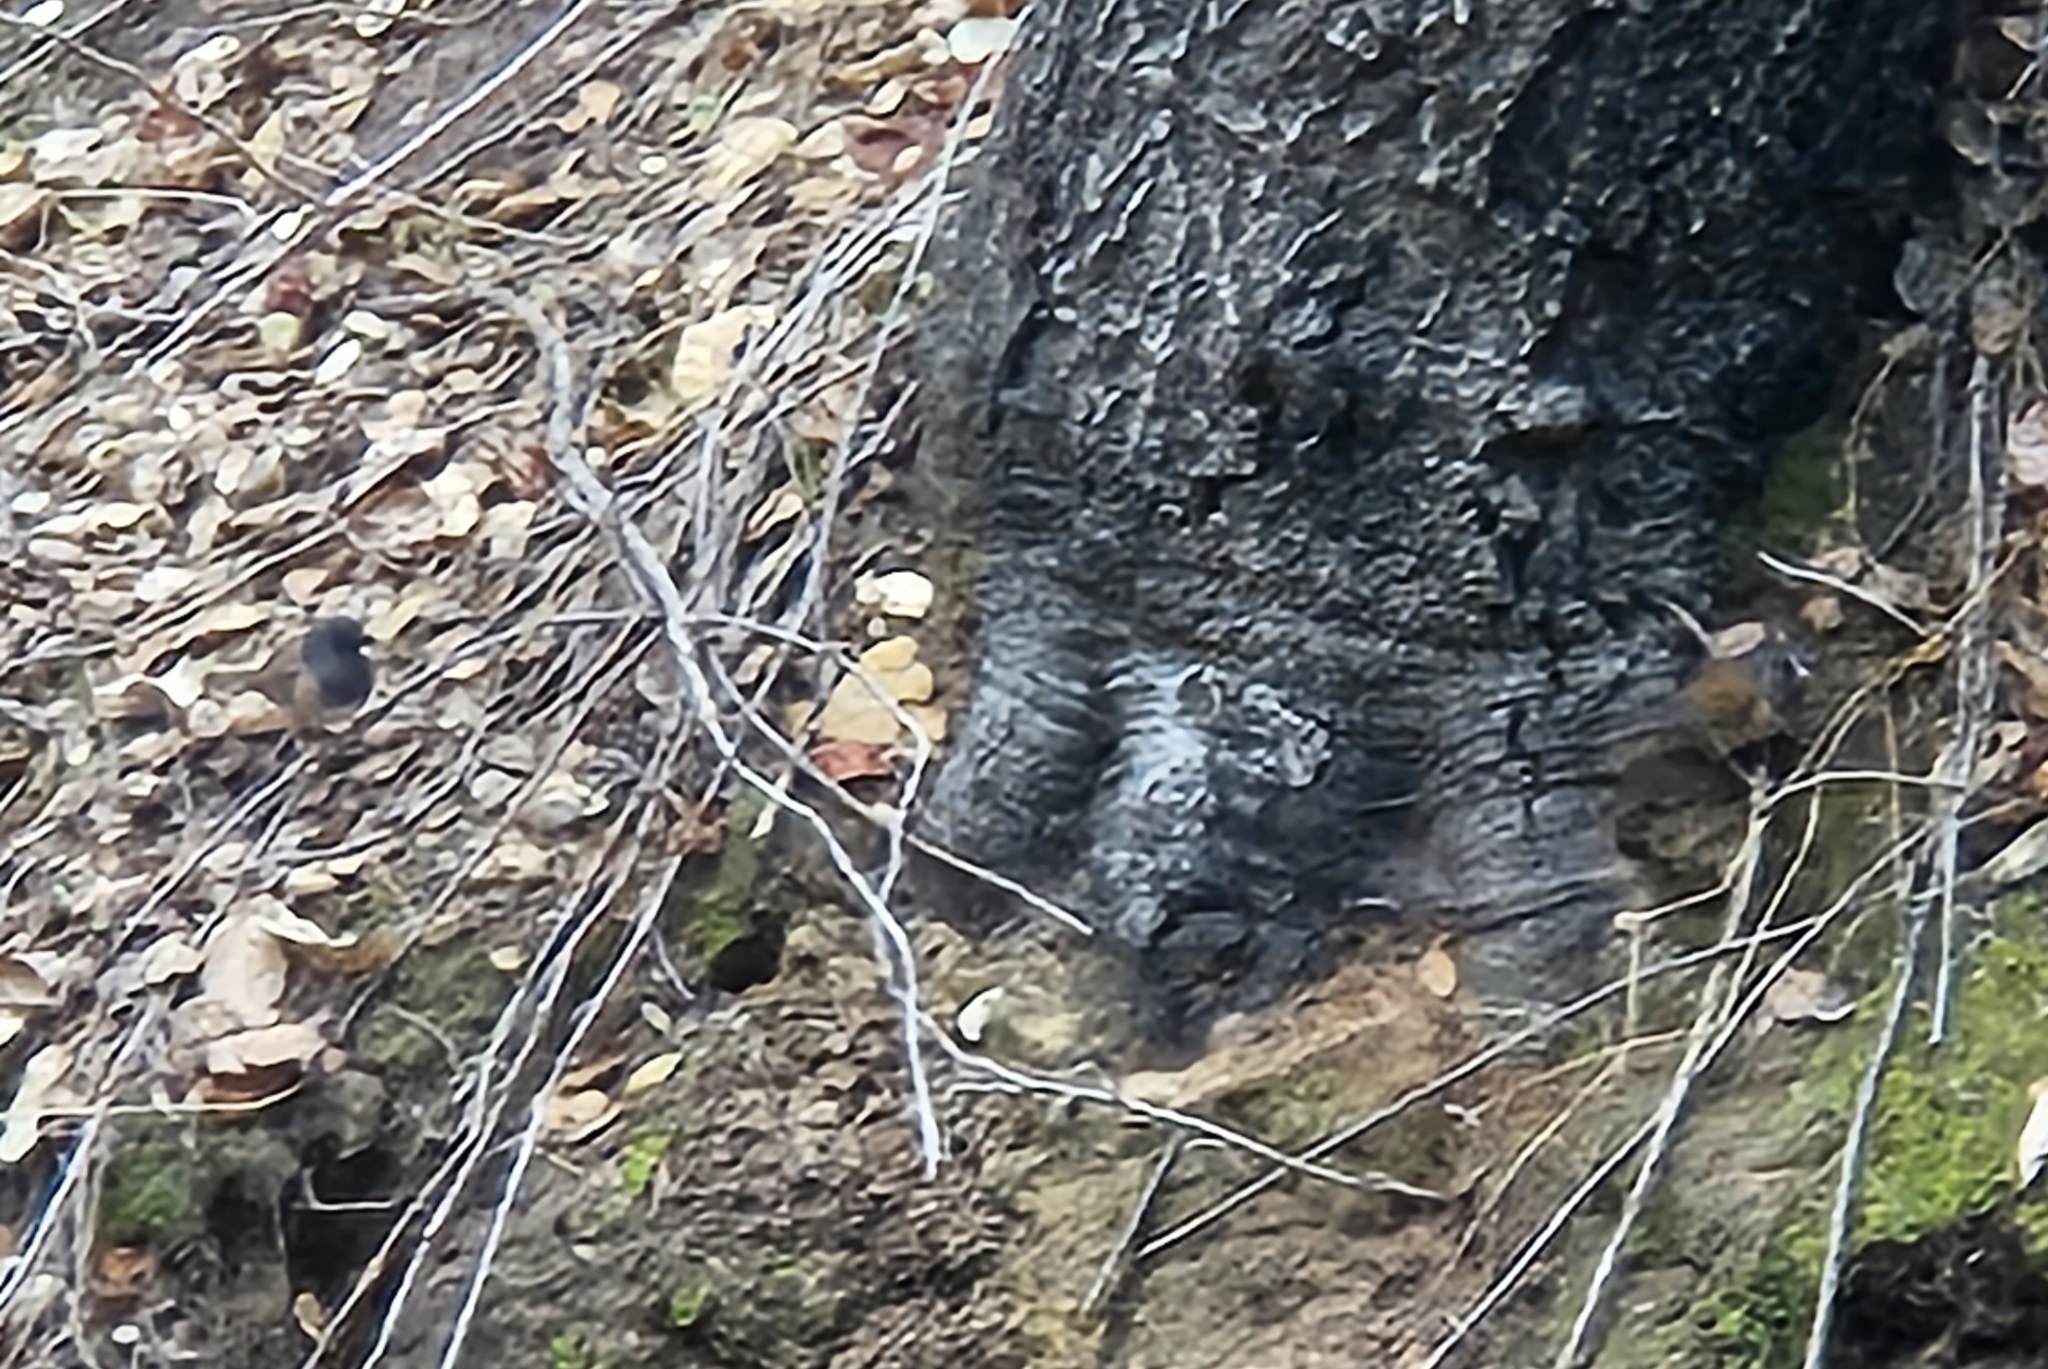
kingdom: Animalia
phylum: Chordata
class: Aves
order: Passeriformes
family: Passerellidae
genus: Junco
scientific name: Junco hyemalis
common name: Dark-eyed junco
